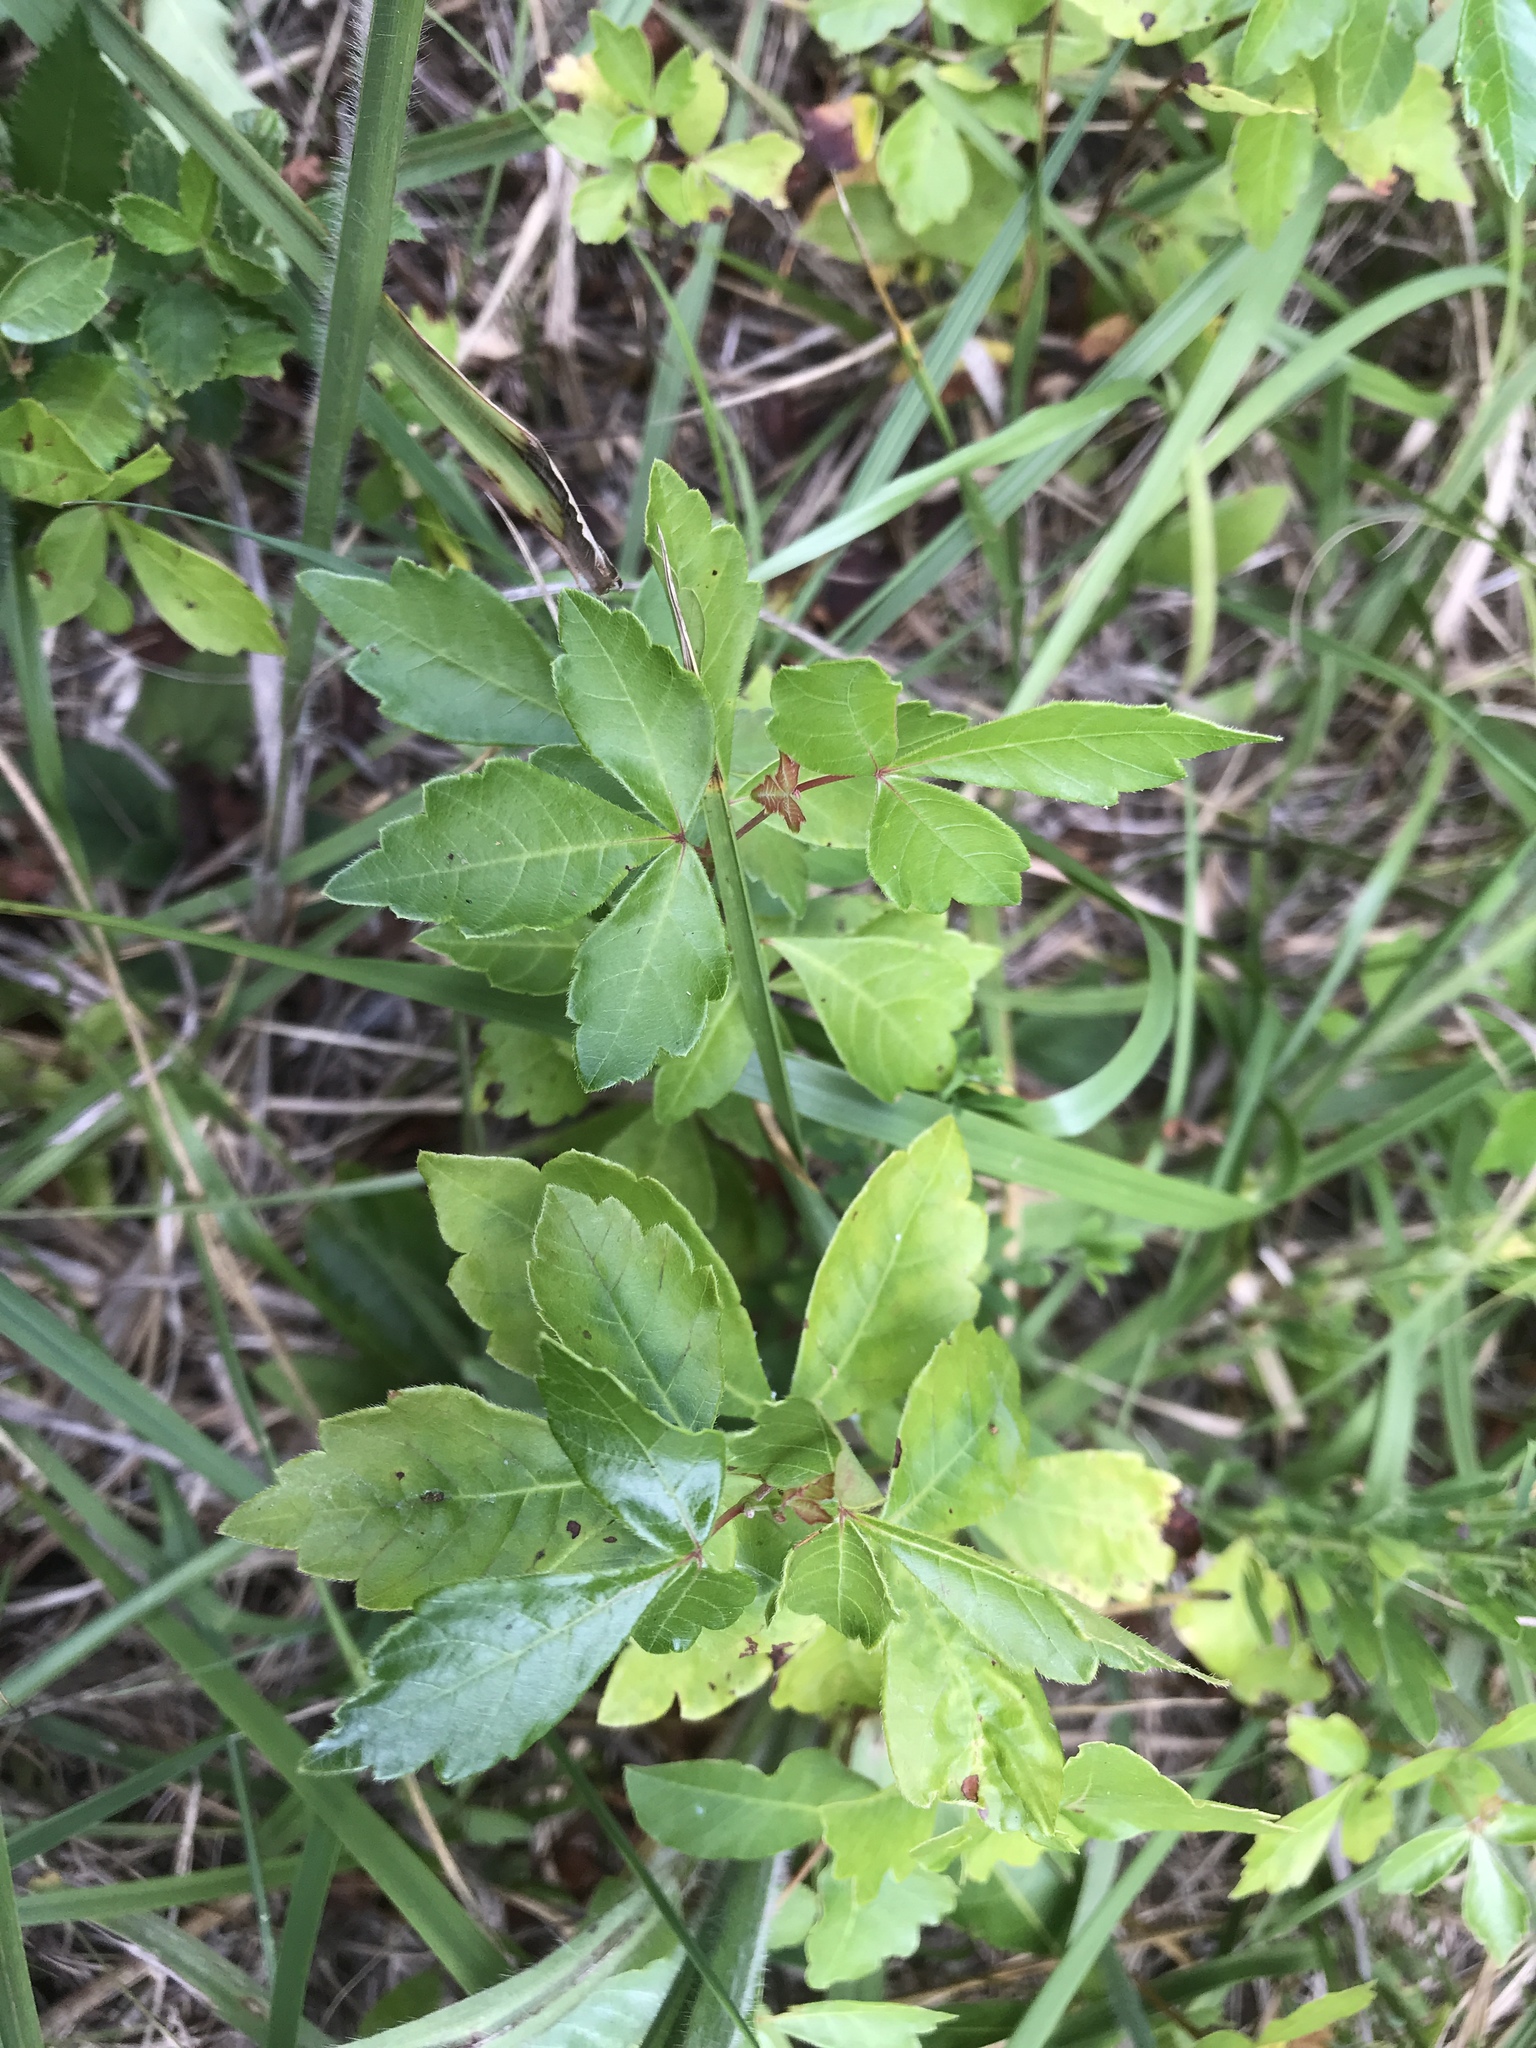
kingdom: Plantae
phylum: Tracheophyta
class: Magnoliopsida
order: Sapindales
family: Anacardiaceae
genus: Rhus
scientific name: Rhus aromatica
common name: Aromatic sumac
